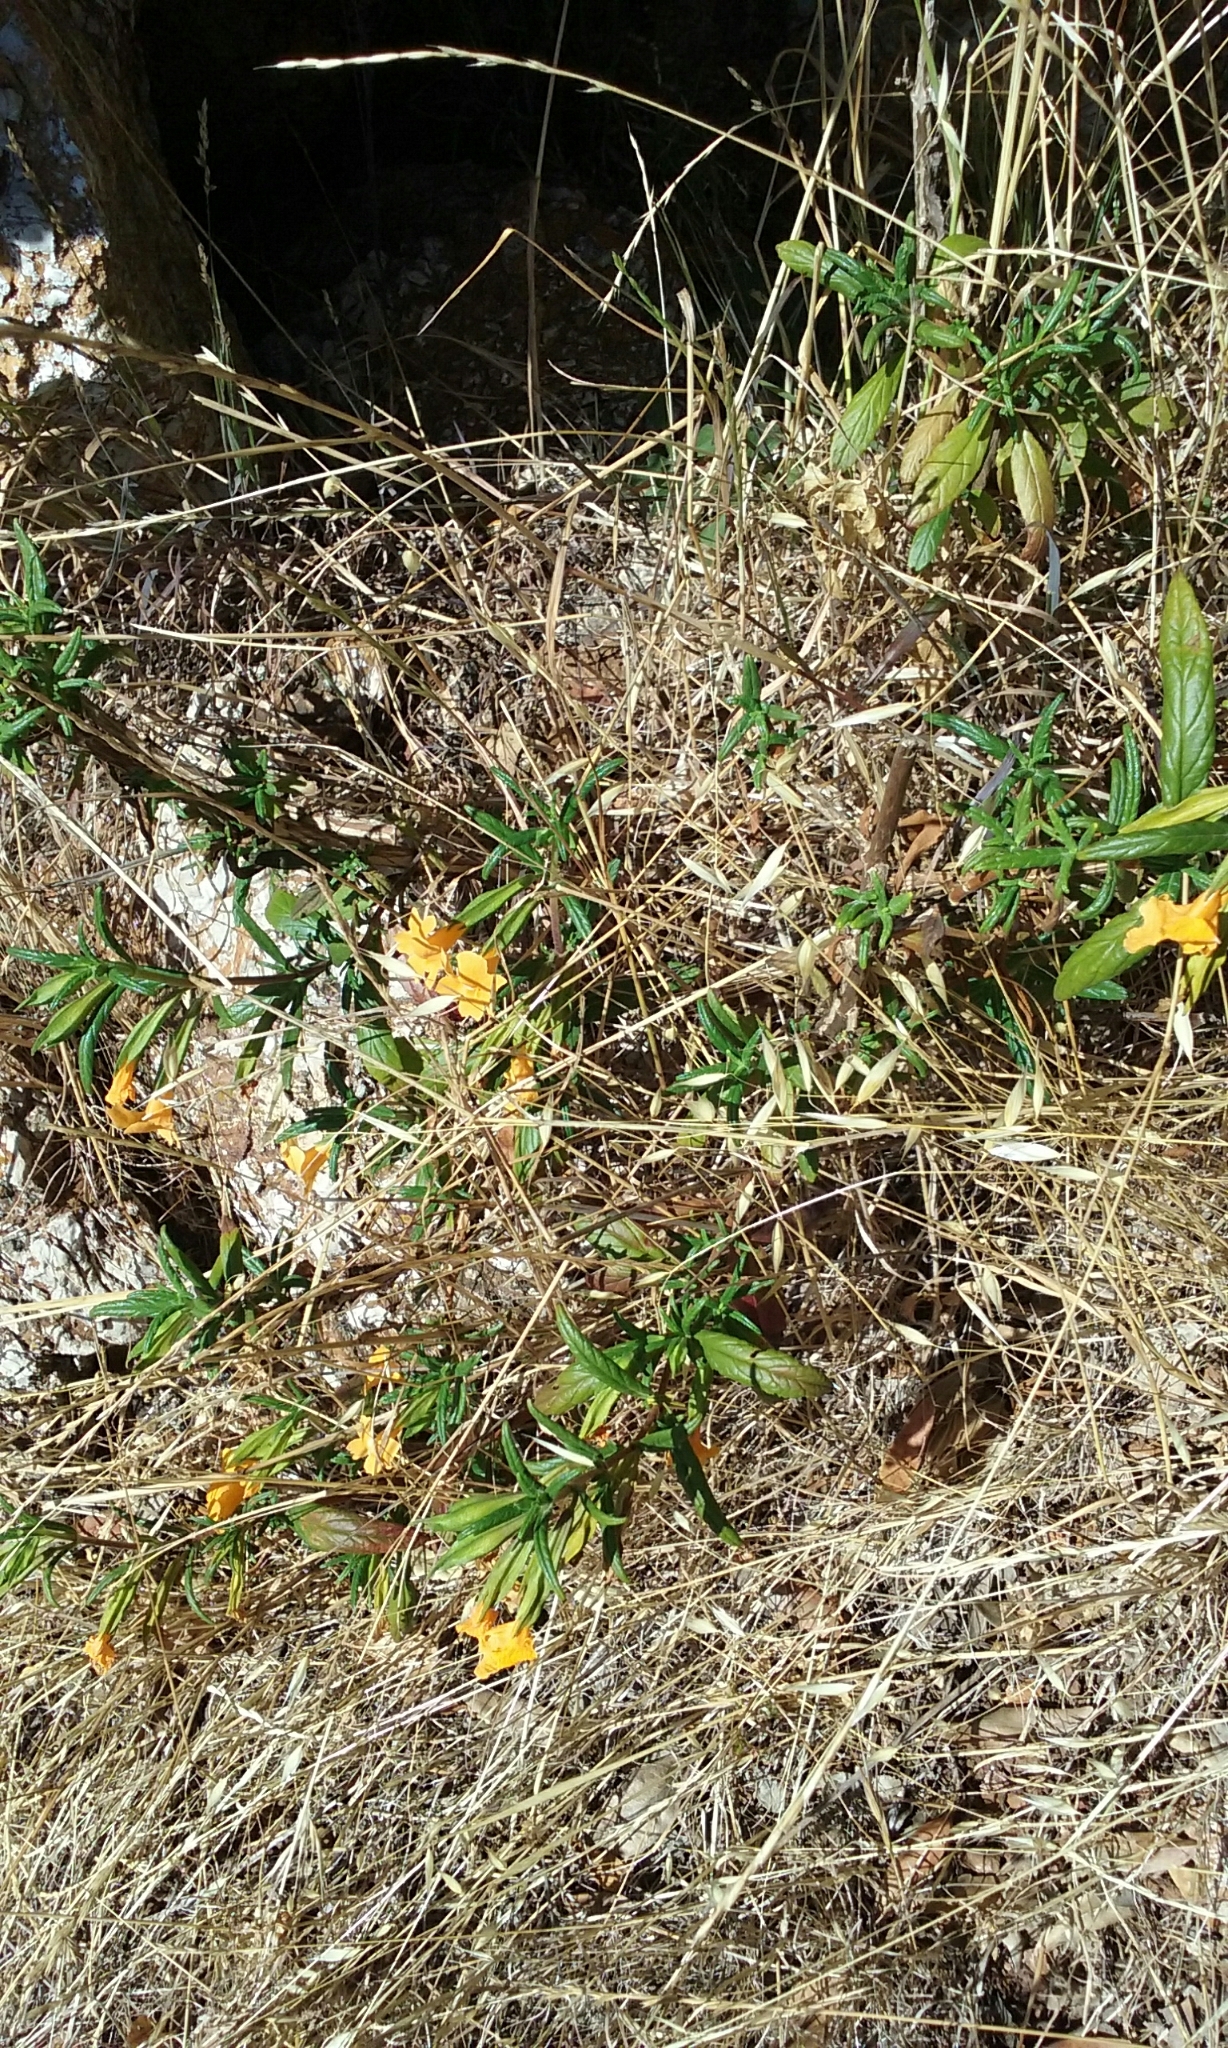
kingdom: Plantae
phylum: Tracheophyta
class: Magnoliopsida
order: Lamiales
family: Phrymaceae
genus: Diplacus
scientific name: Diplacus aurantiacus
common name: Bush monkey-flower
